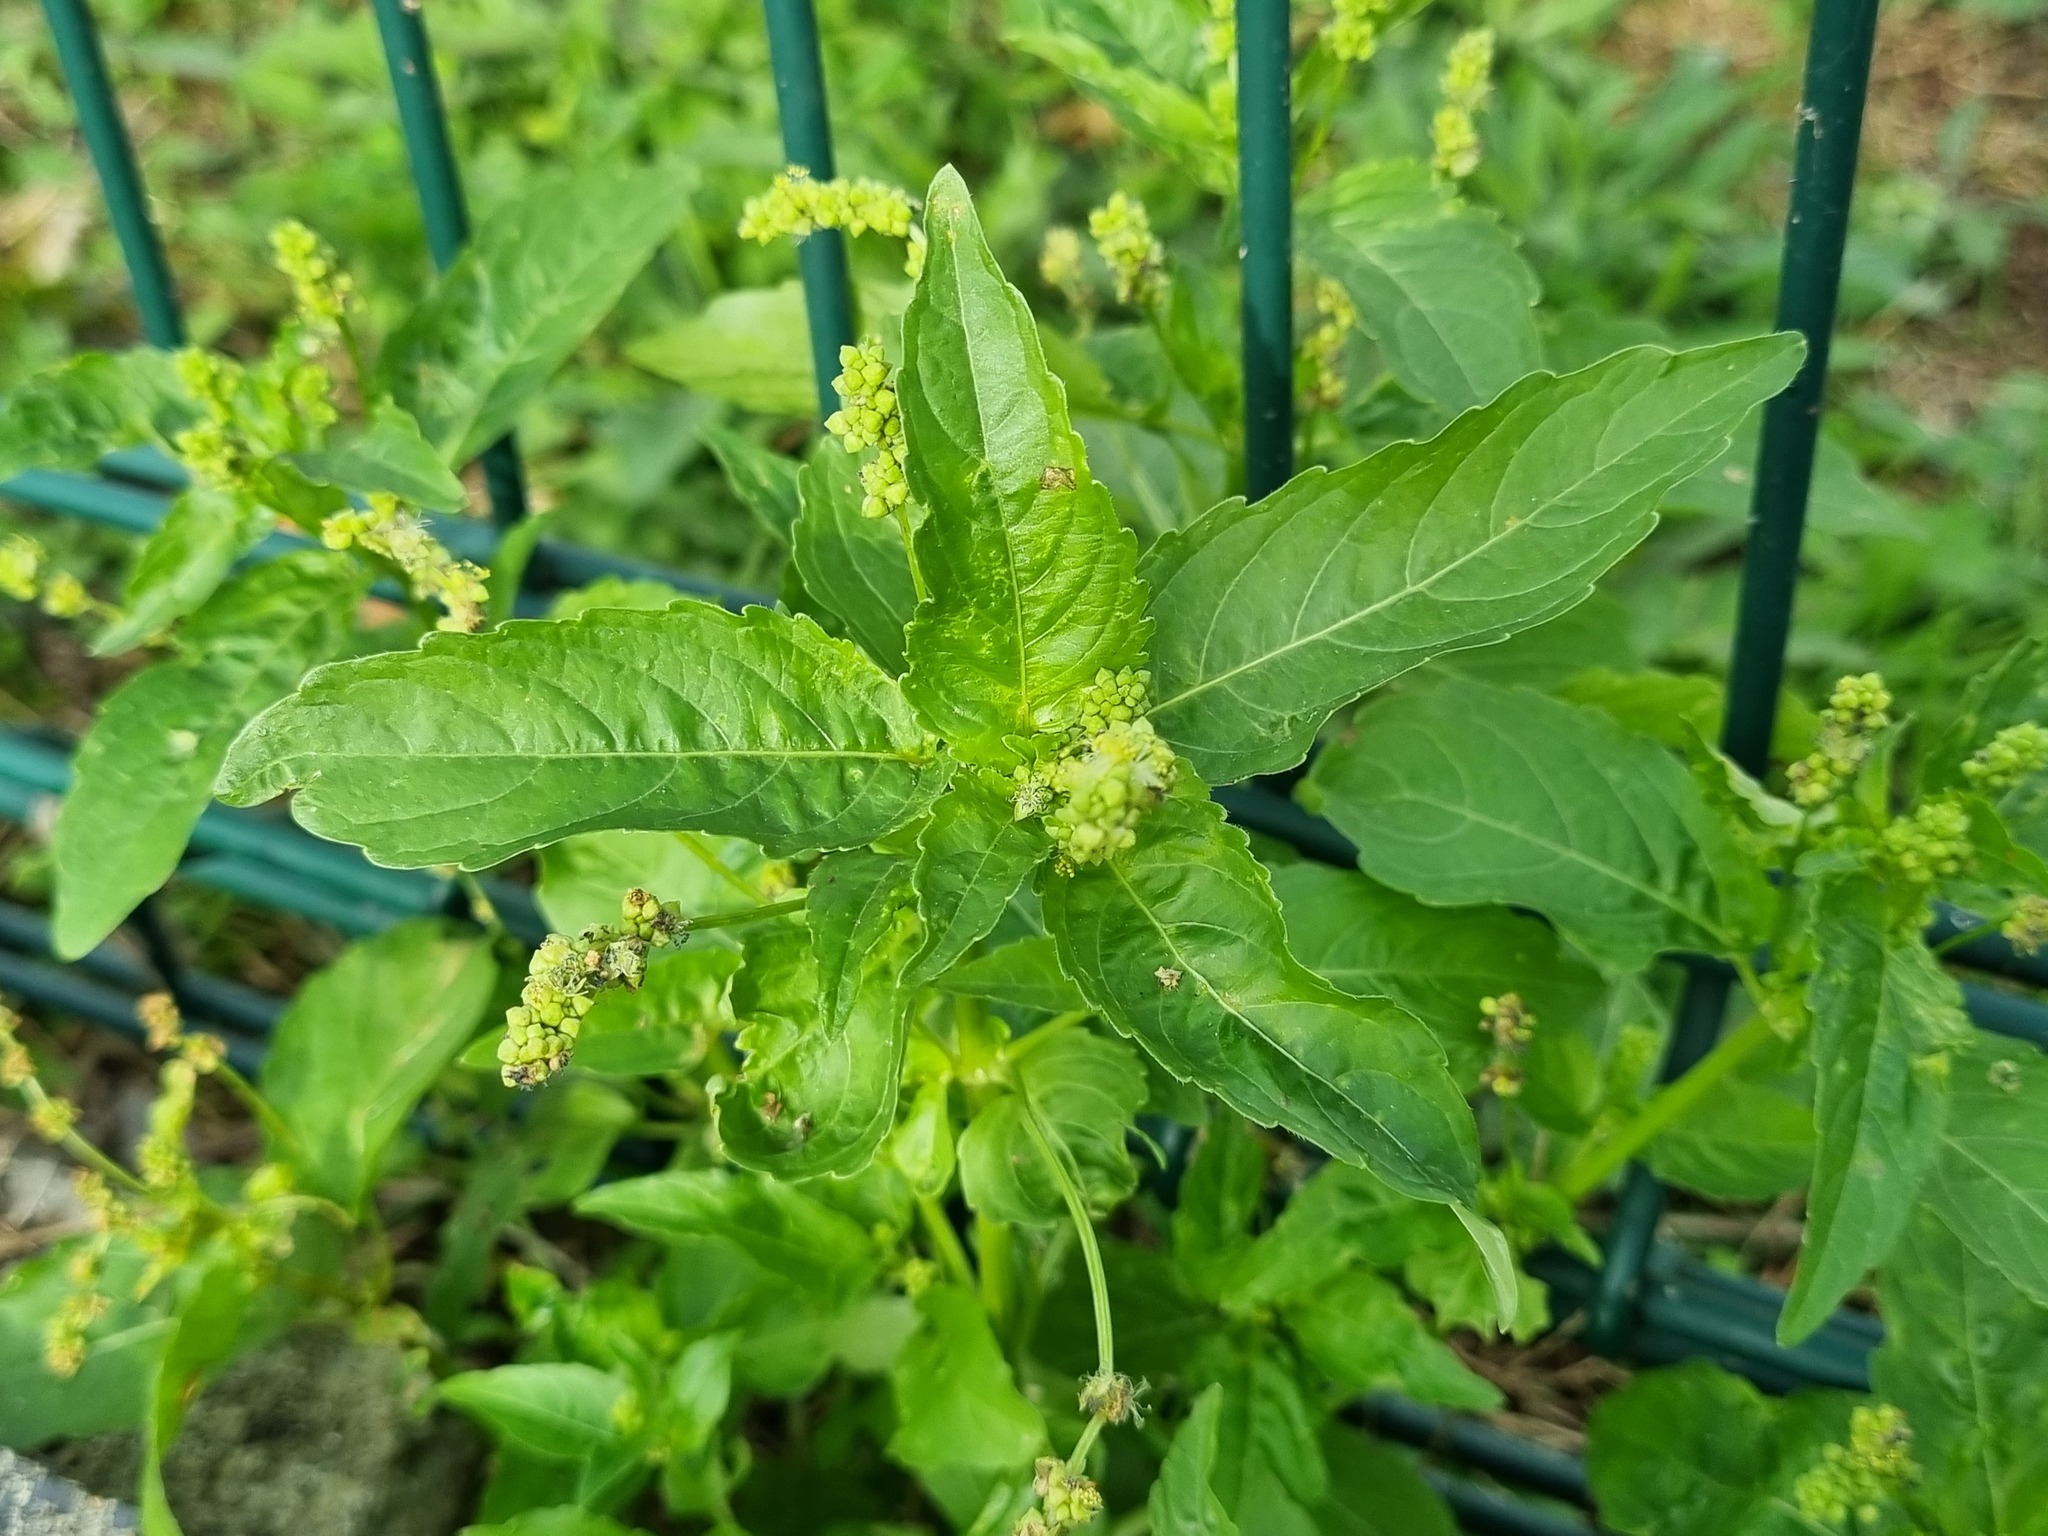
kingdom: Plantae
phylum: Tracheophyta
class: Magnoliopsida
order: Malpighiales
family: Euphorbiaceae
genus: Mercurialis
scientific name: Mercurialis annua
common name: Annual mercury
